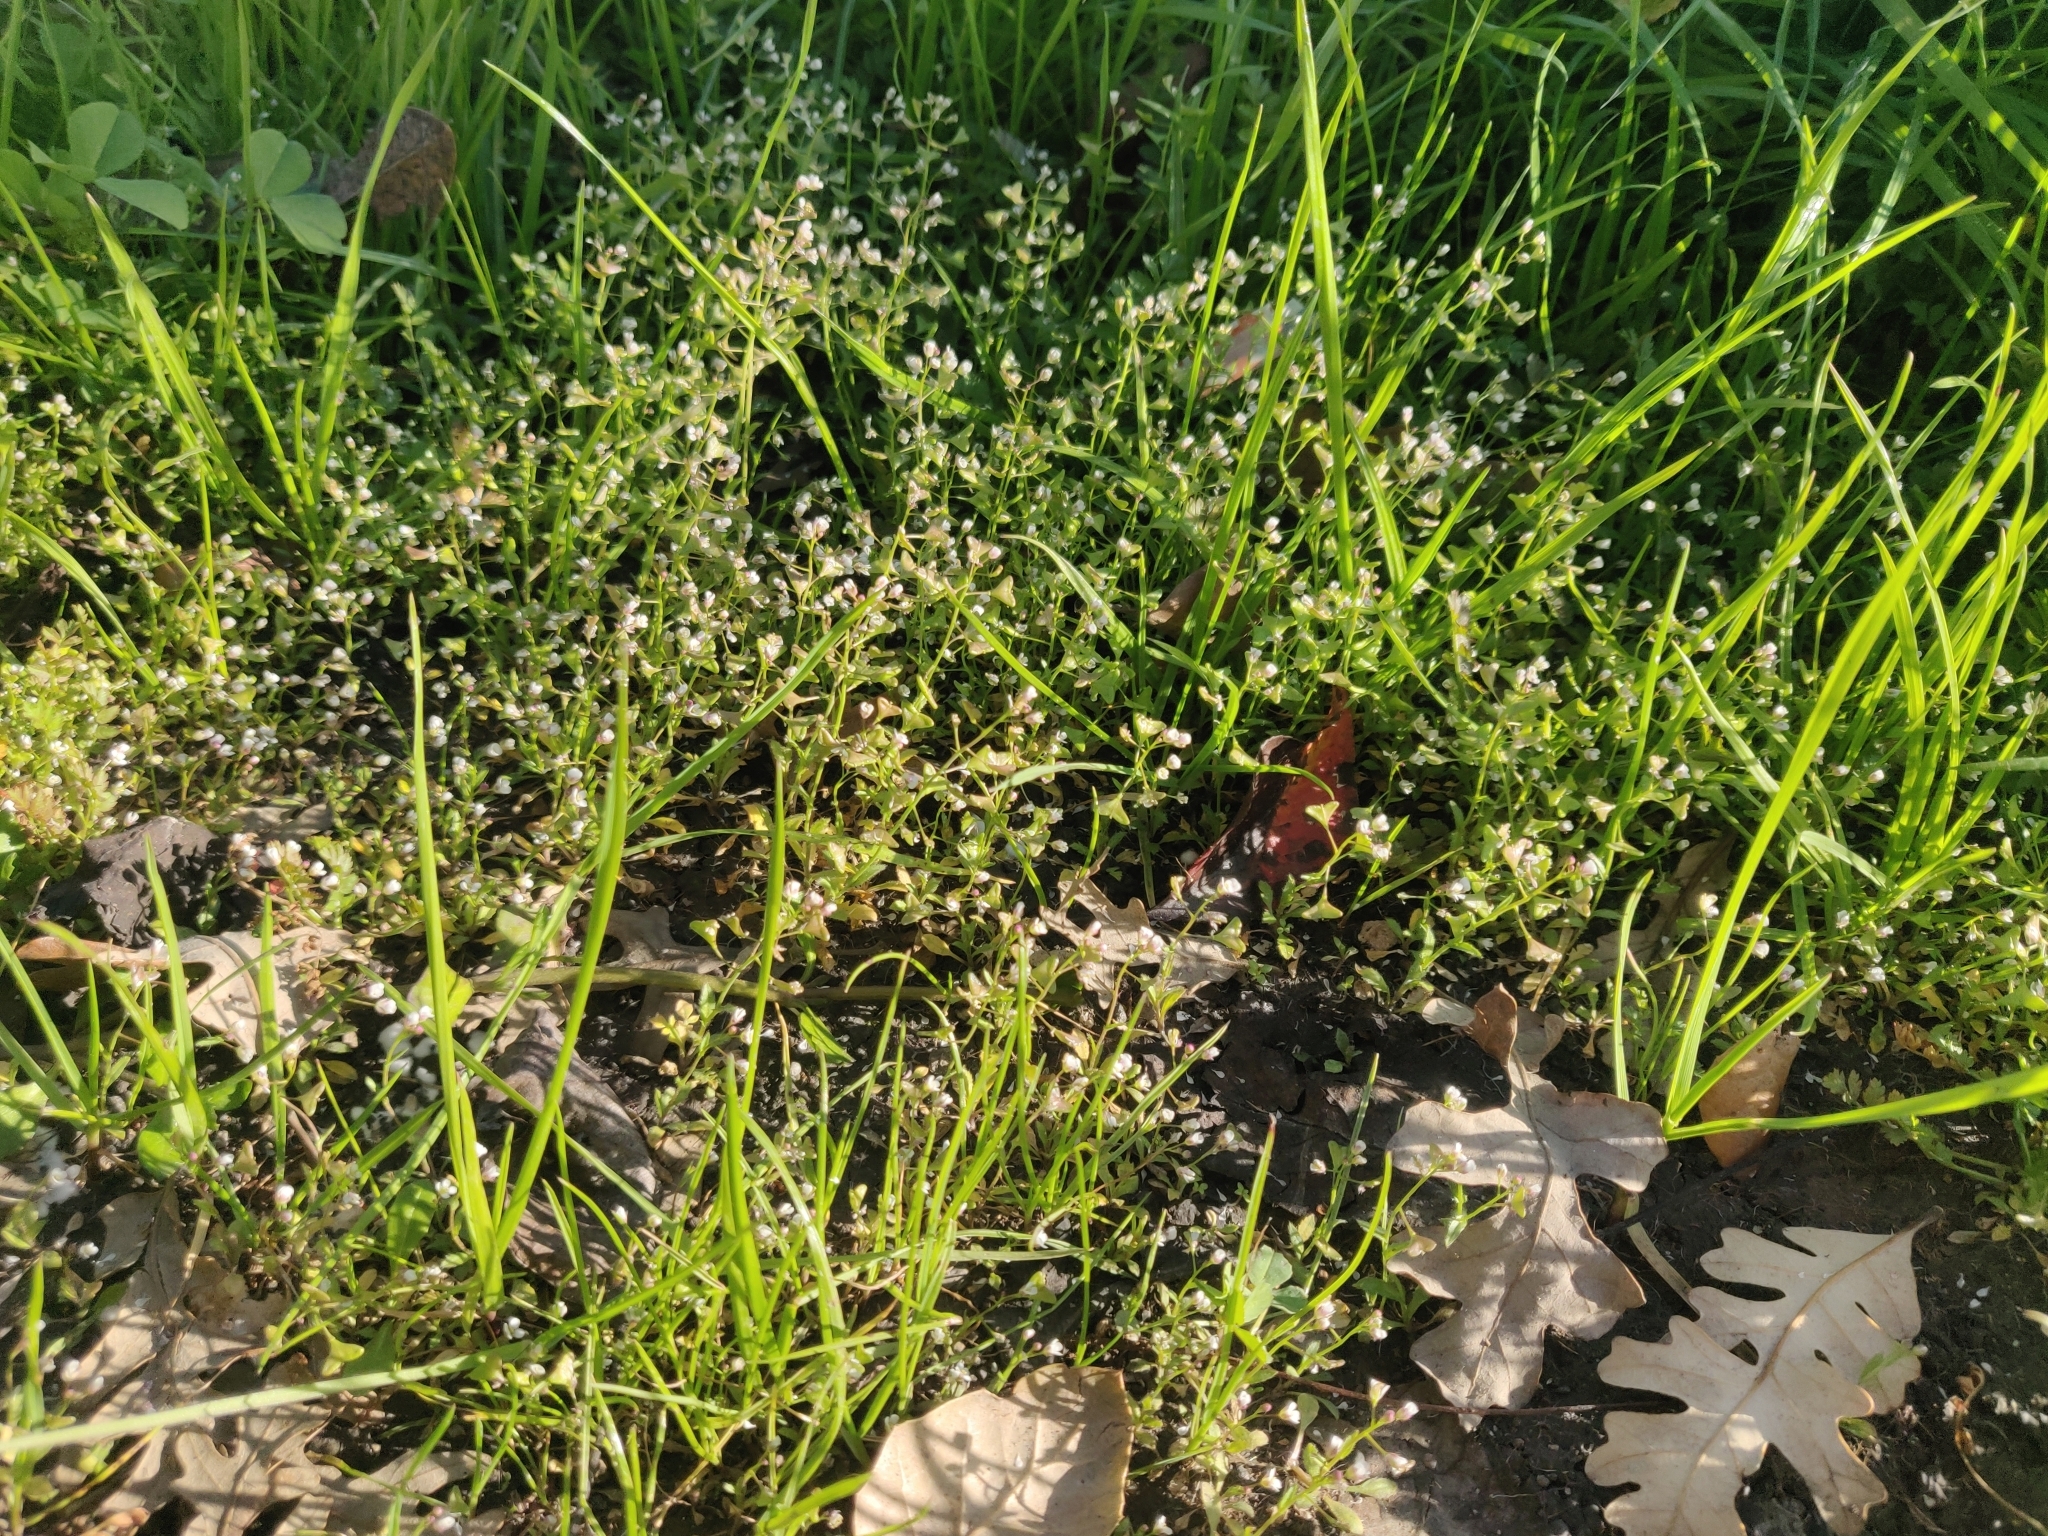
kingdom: Plantae
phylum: Tracheophyta
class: Magnoliopsida
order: Brassicales
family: Brassicaceae
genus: Capsella
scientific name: Capsella bursa-pastoris
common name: Shepherd's purse
